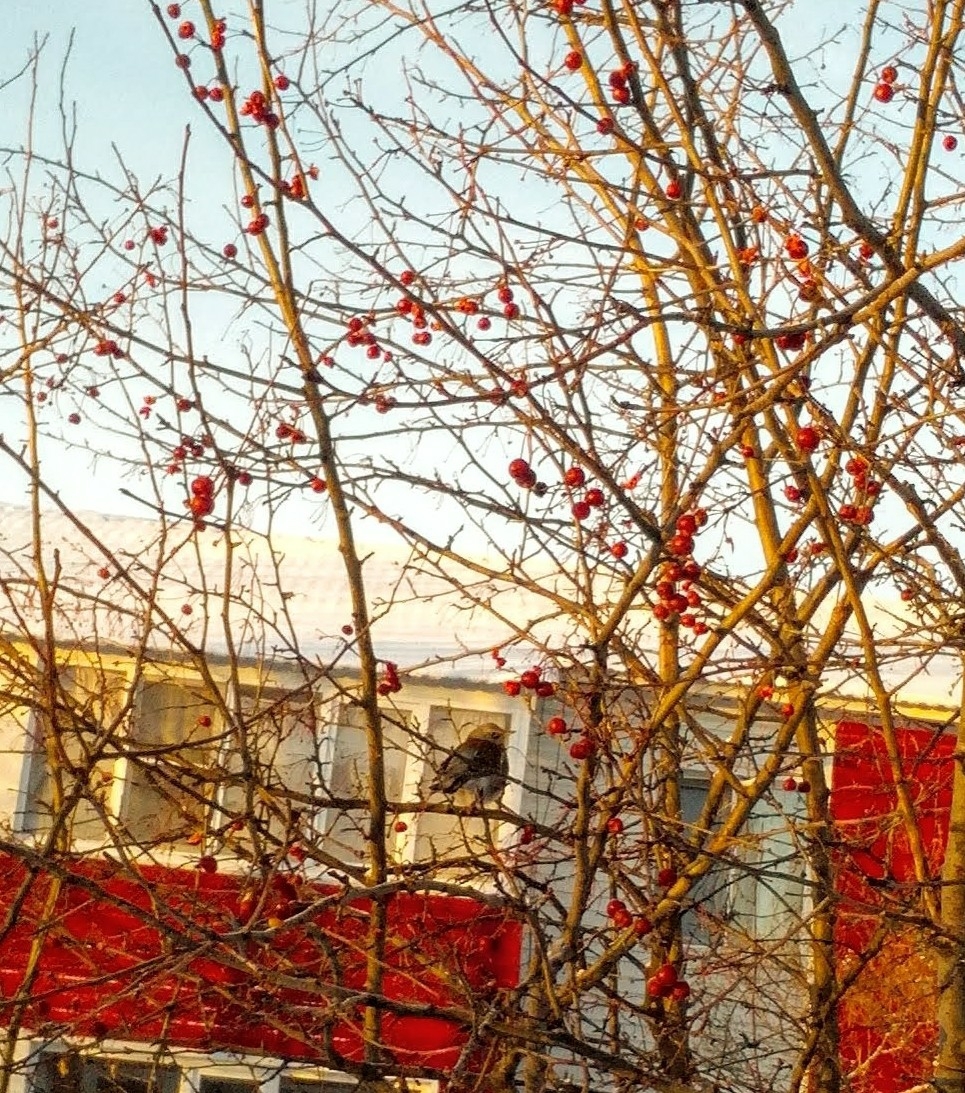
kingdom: Animalia
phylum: Chordata
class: Aves
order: Passeriformes
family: Turdidae
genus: Turdus
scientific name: Turdus pilaris
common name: Fieldfare
